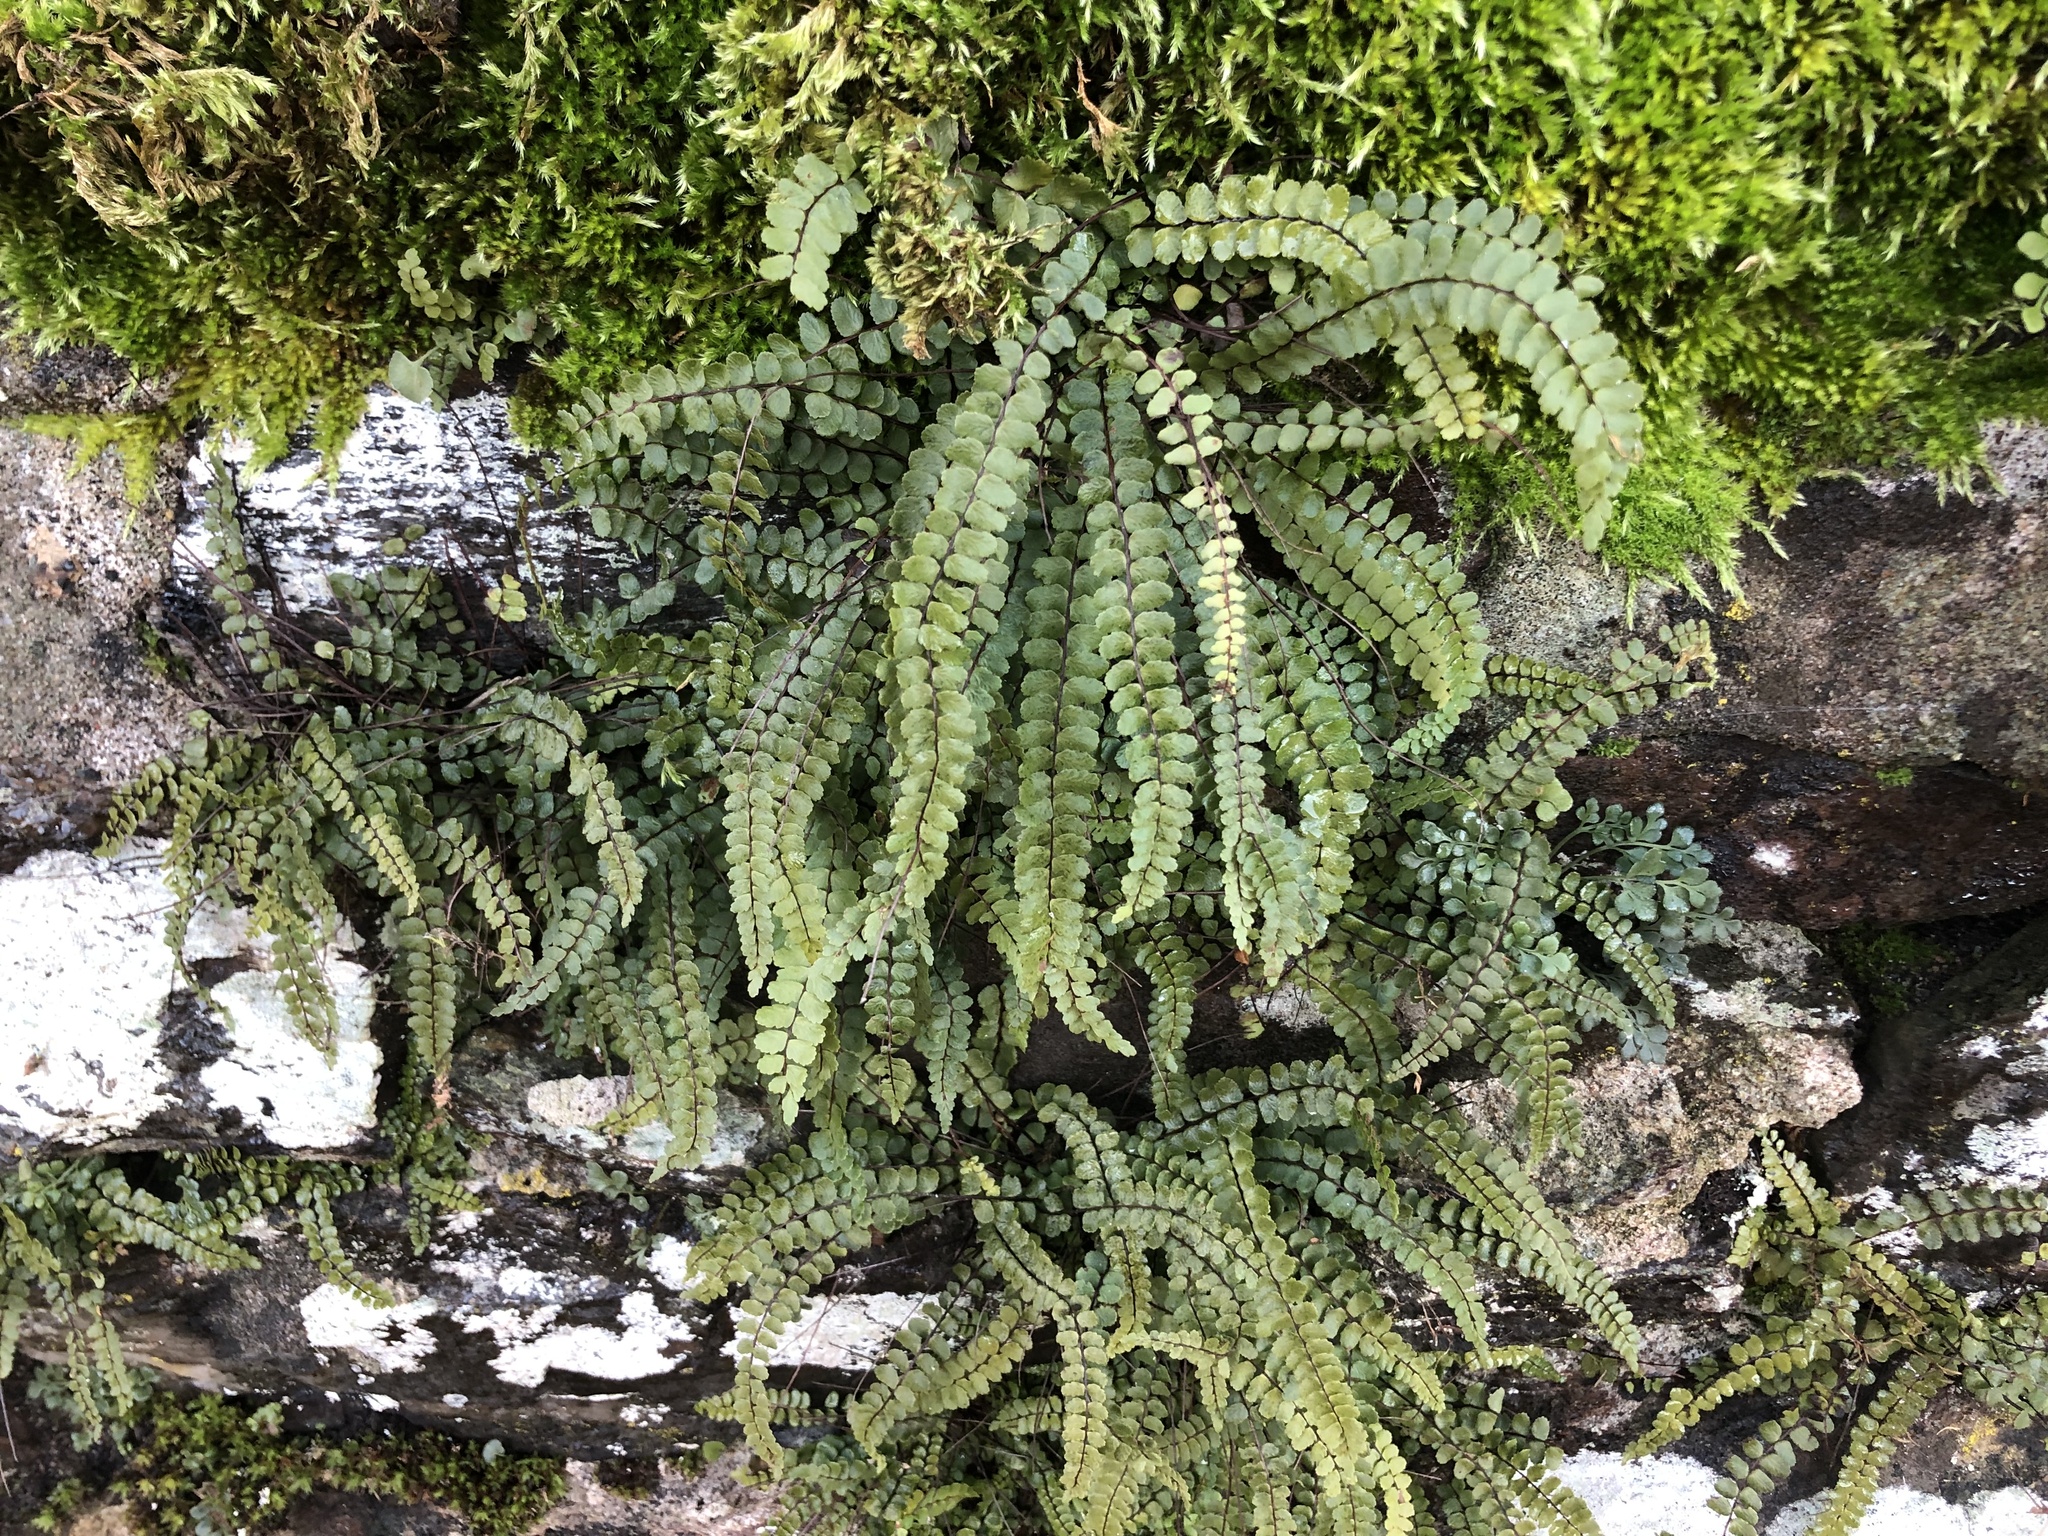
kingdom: Plantae
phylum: Tracheophyta
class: Polypodiopsida
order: Polypodiales
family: Aspleniaceae
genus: Asplenium
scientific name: Asplenium trichomanes
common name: Maidenhair spleenwort
